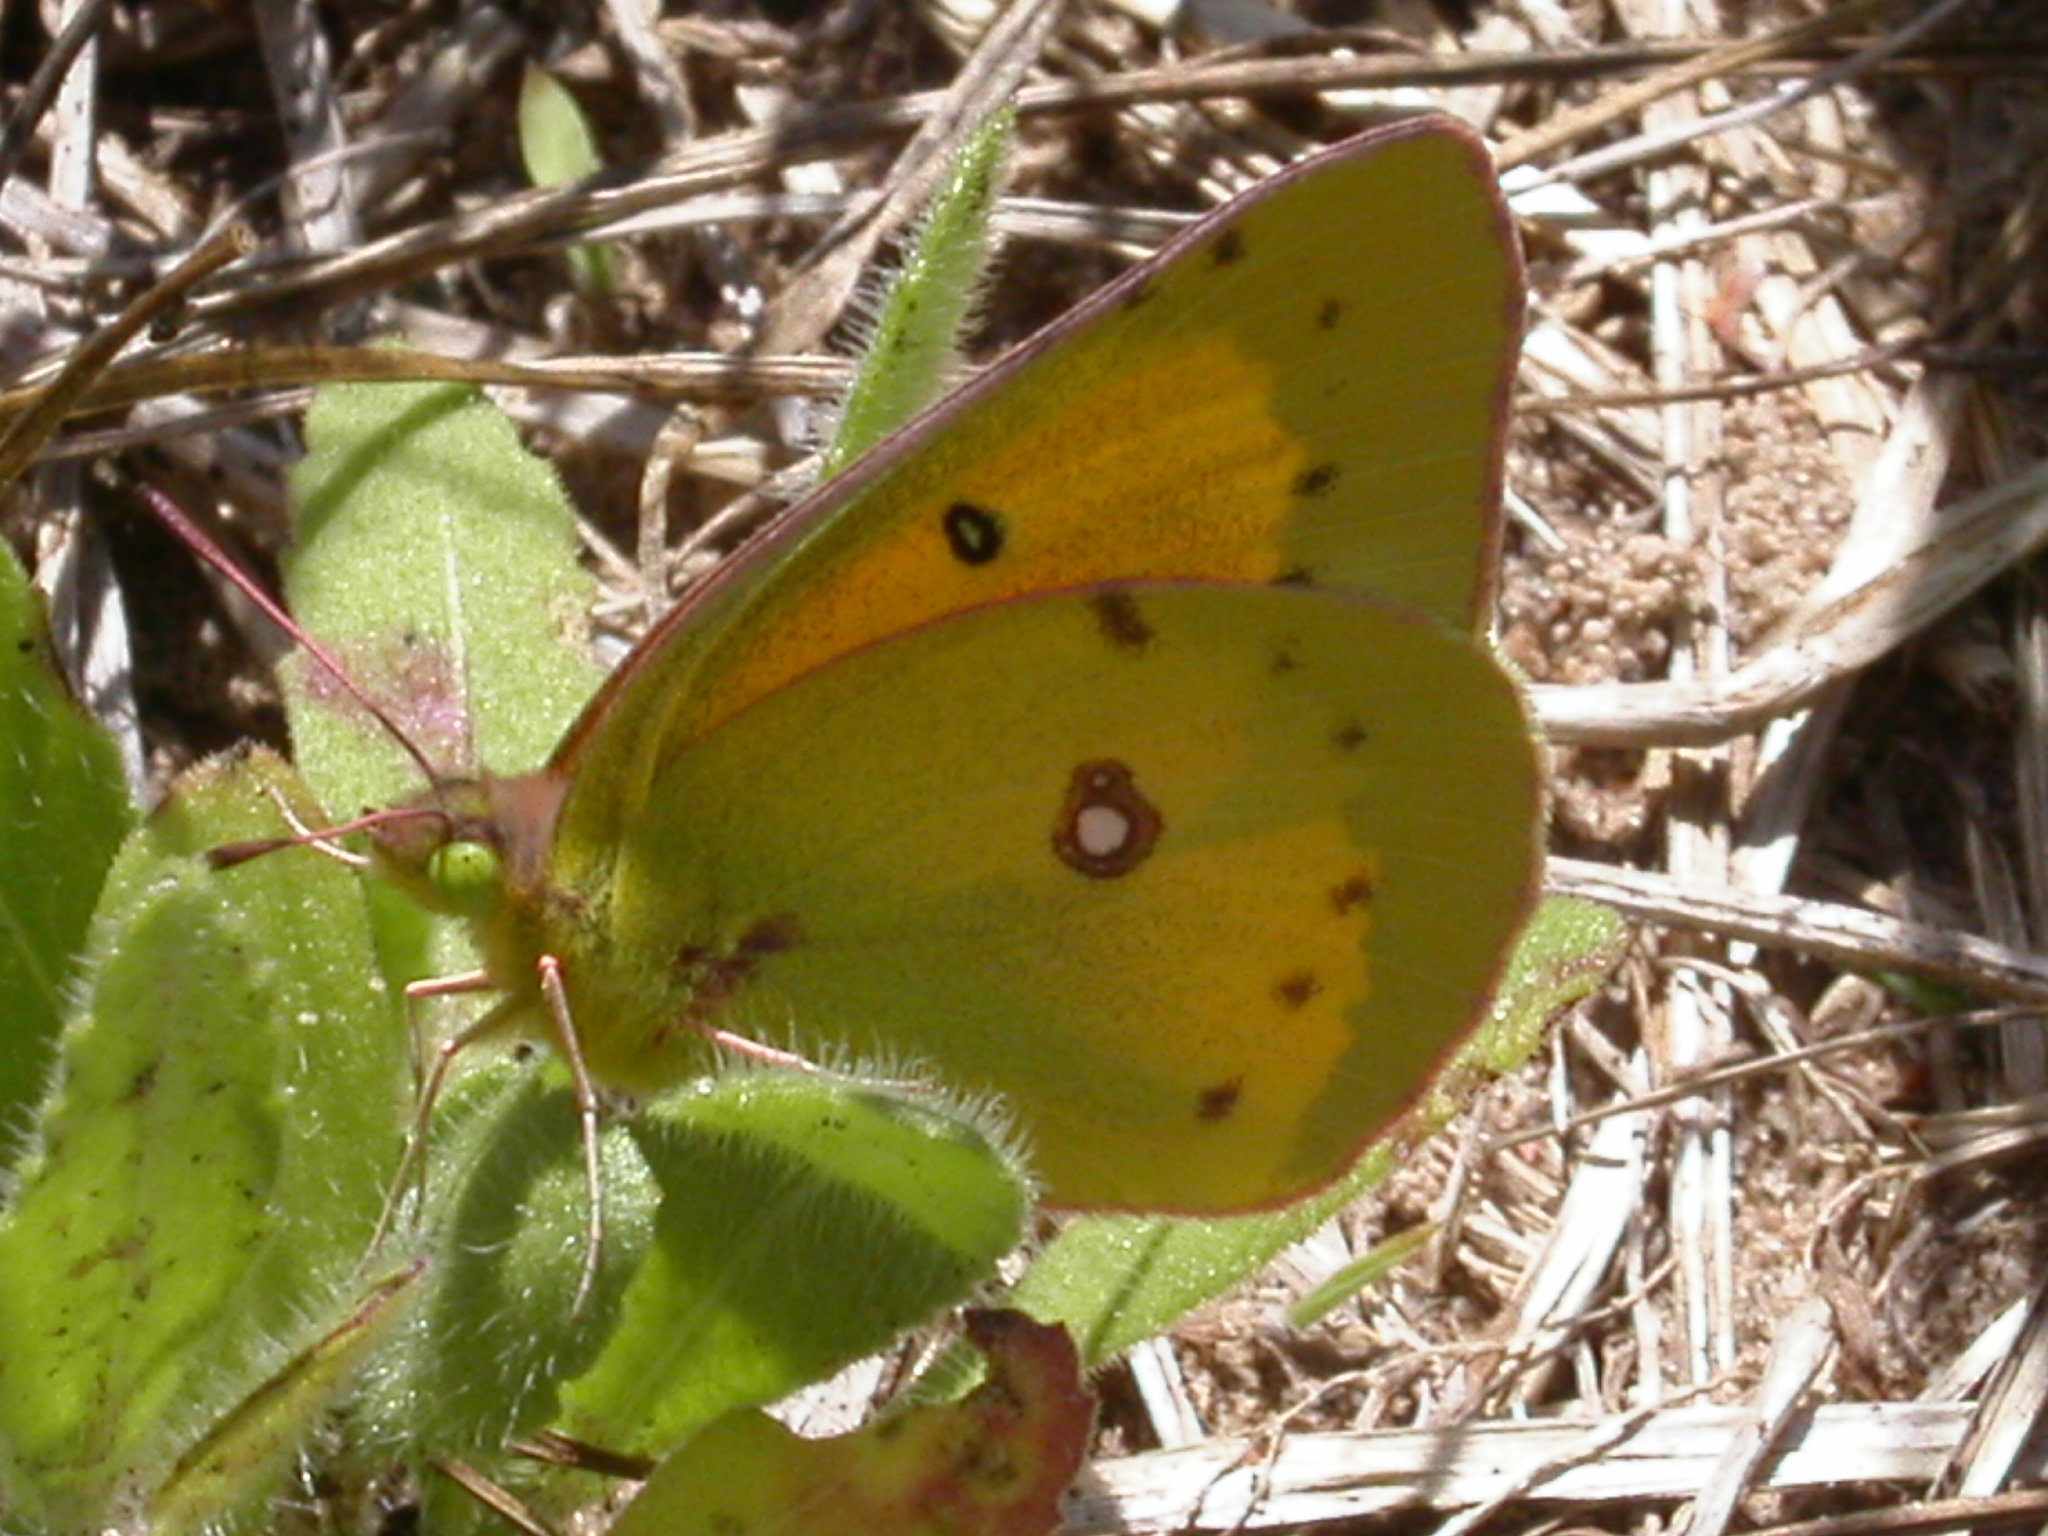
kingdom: Animalia
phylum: Arthropoda
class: Insecta
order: Lepidoptera
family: Pieridae
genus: Colias
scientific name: Colias eurytheme
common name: Alfalfa butterfly
